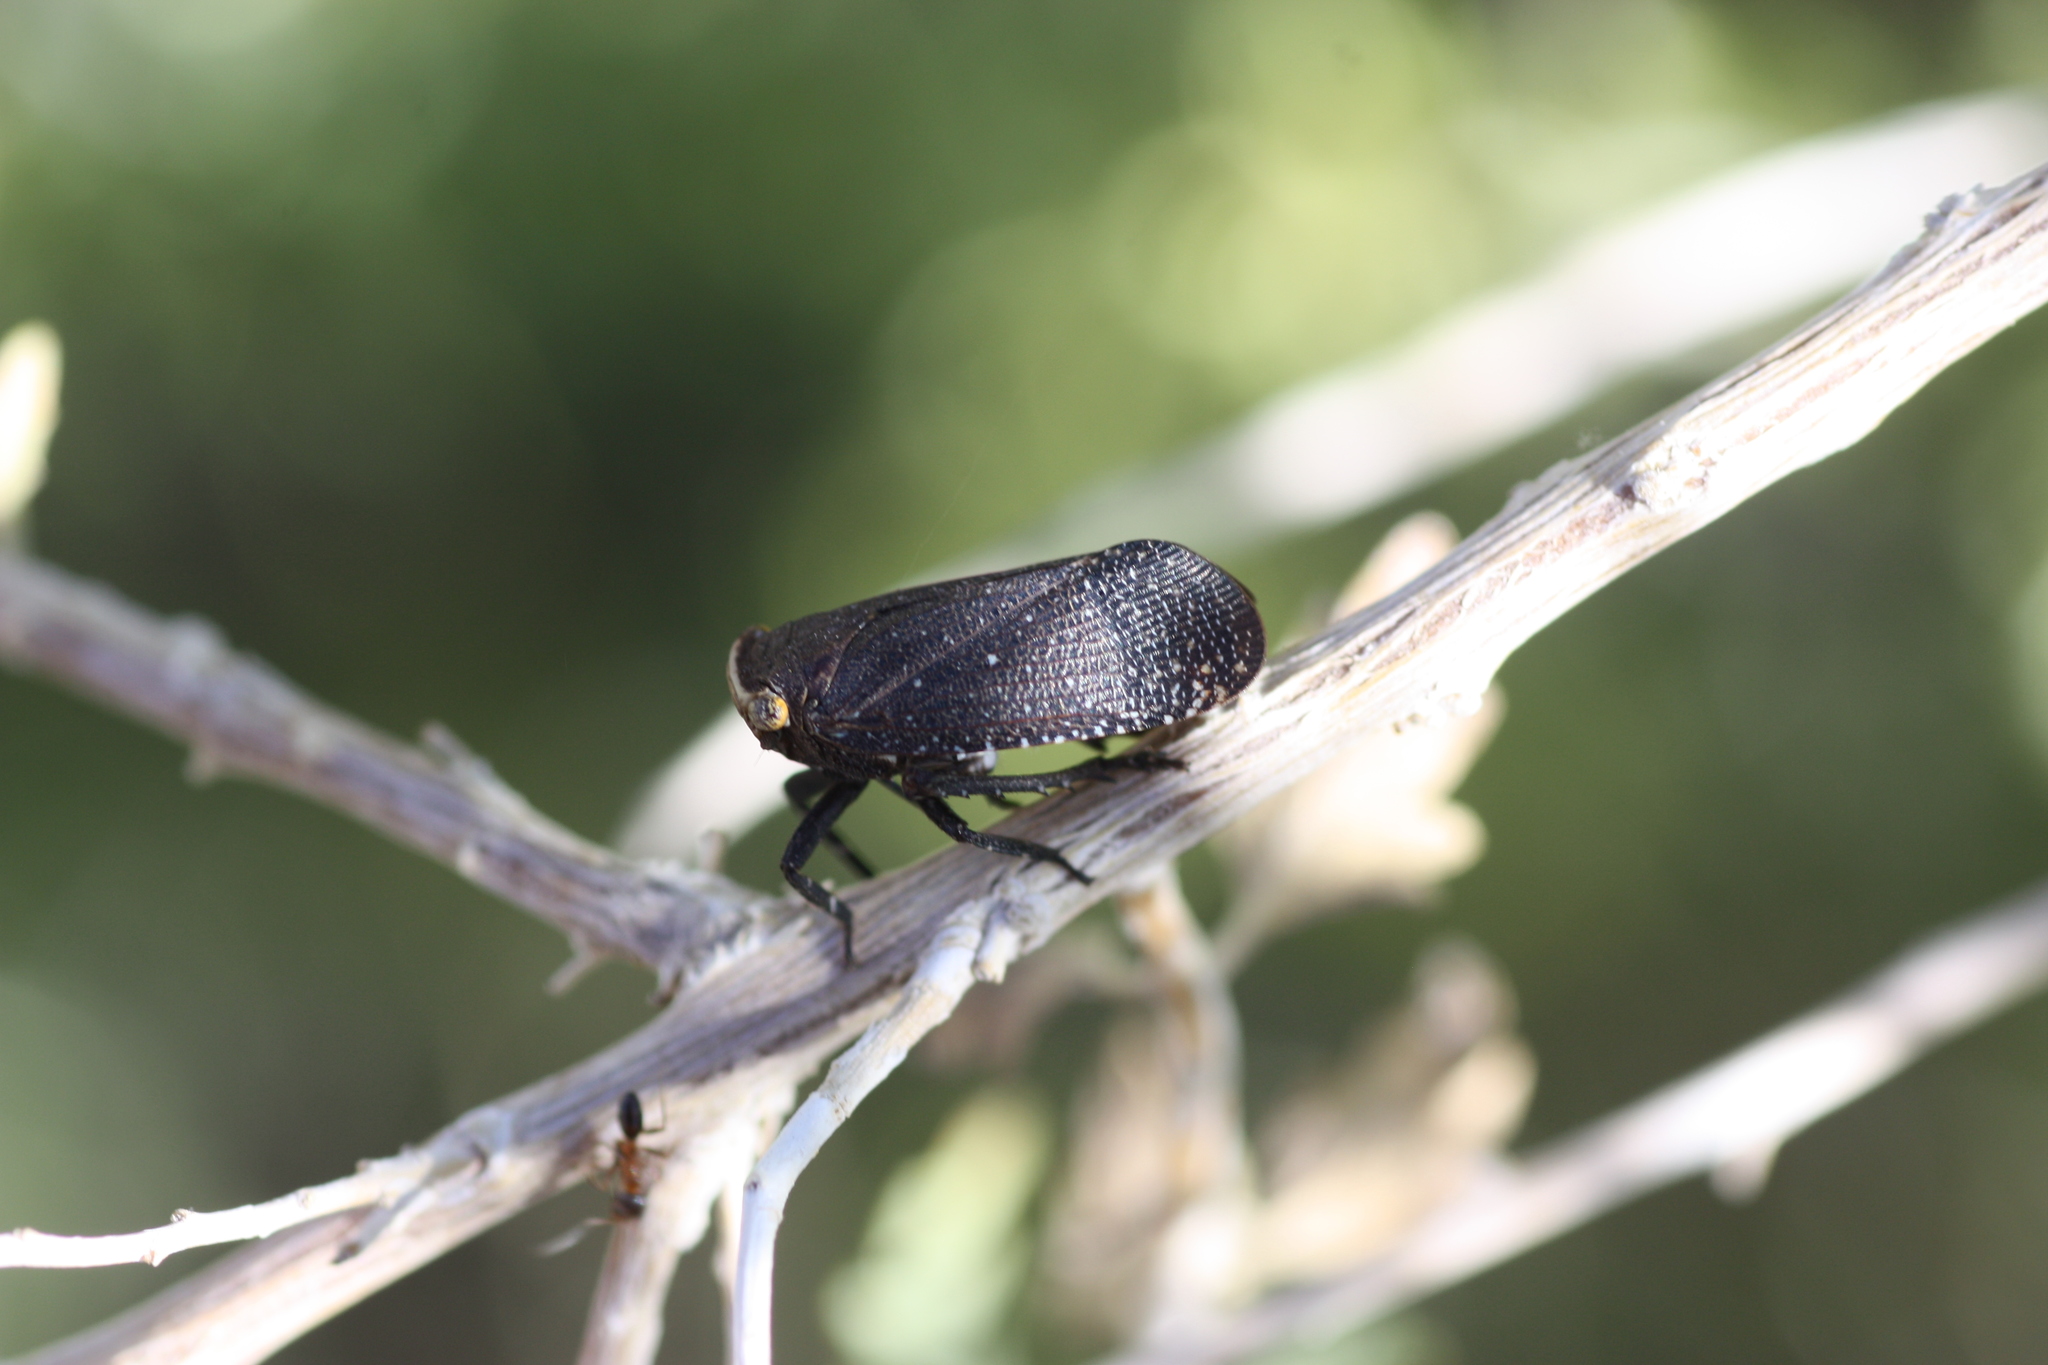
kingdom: Animalia
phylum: Arthropoda
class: Insecta
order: Hemiptera
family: Fulgoridae
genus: Crepusia
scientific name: Crepusia fuliginosa
